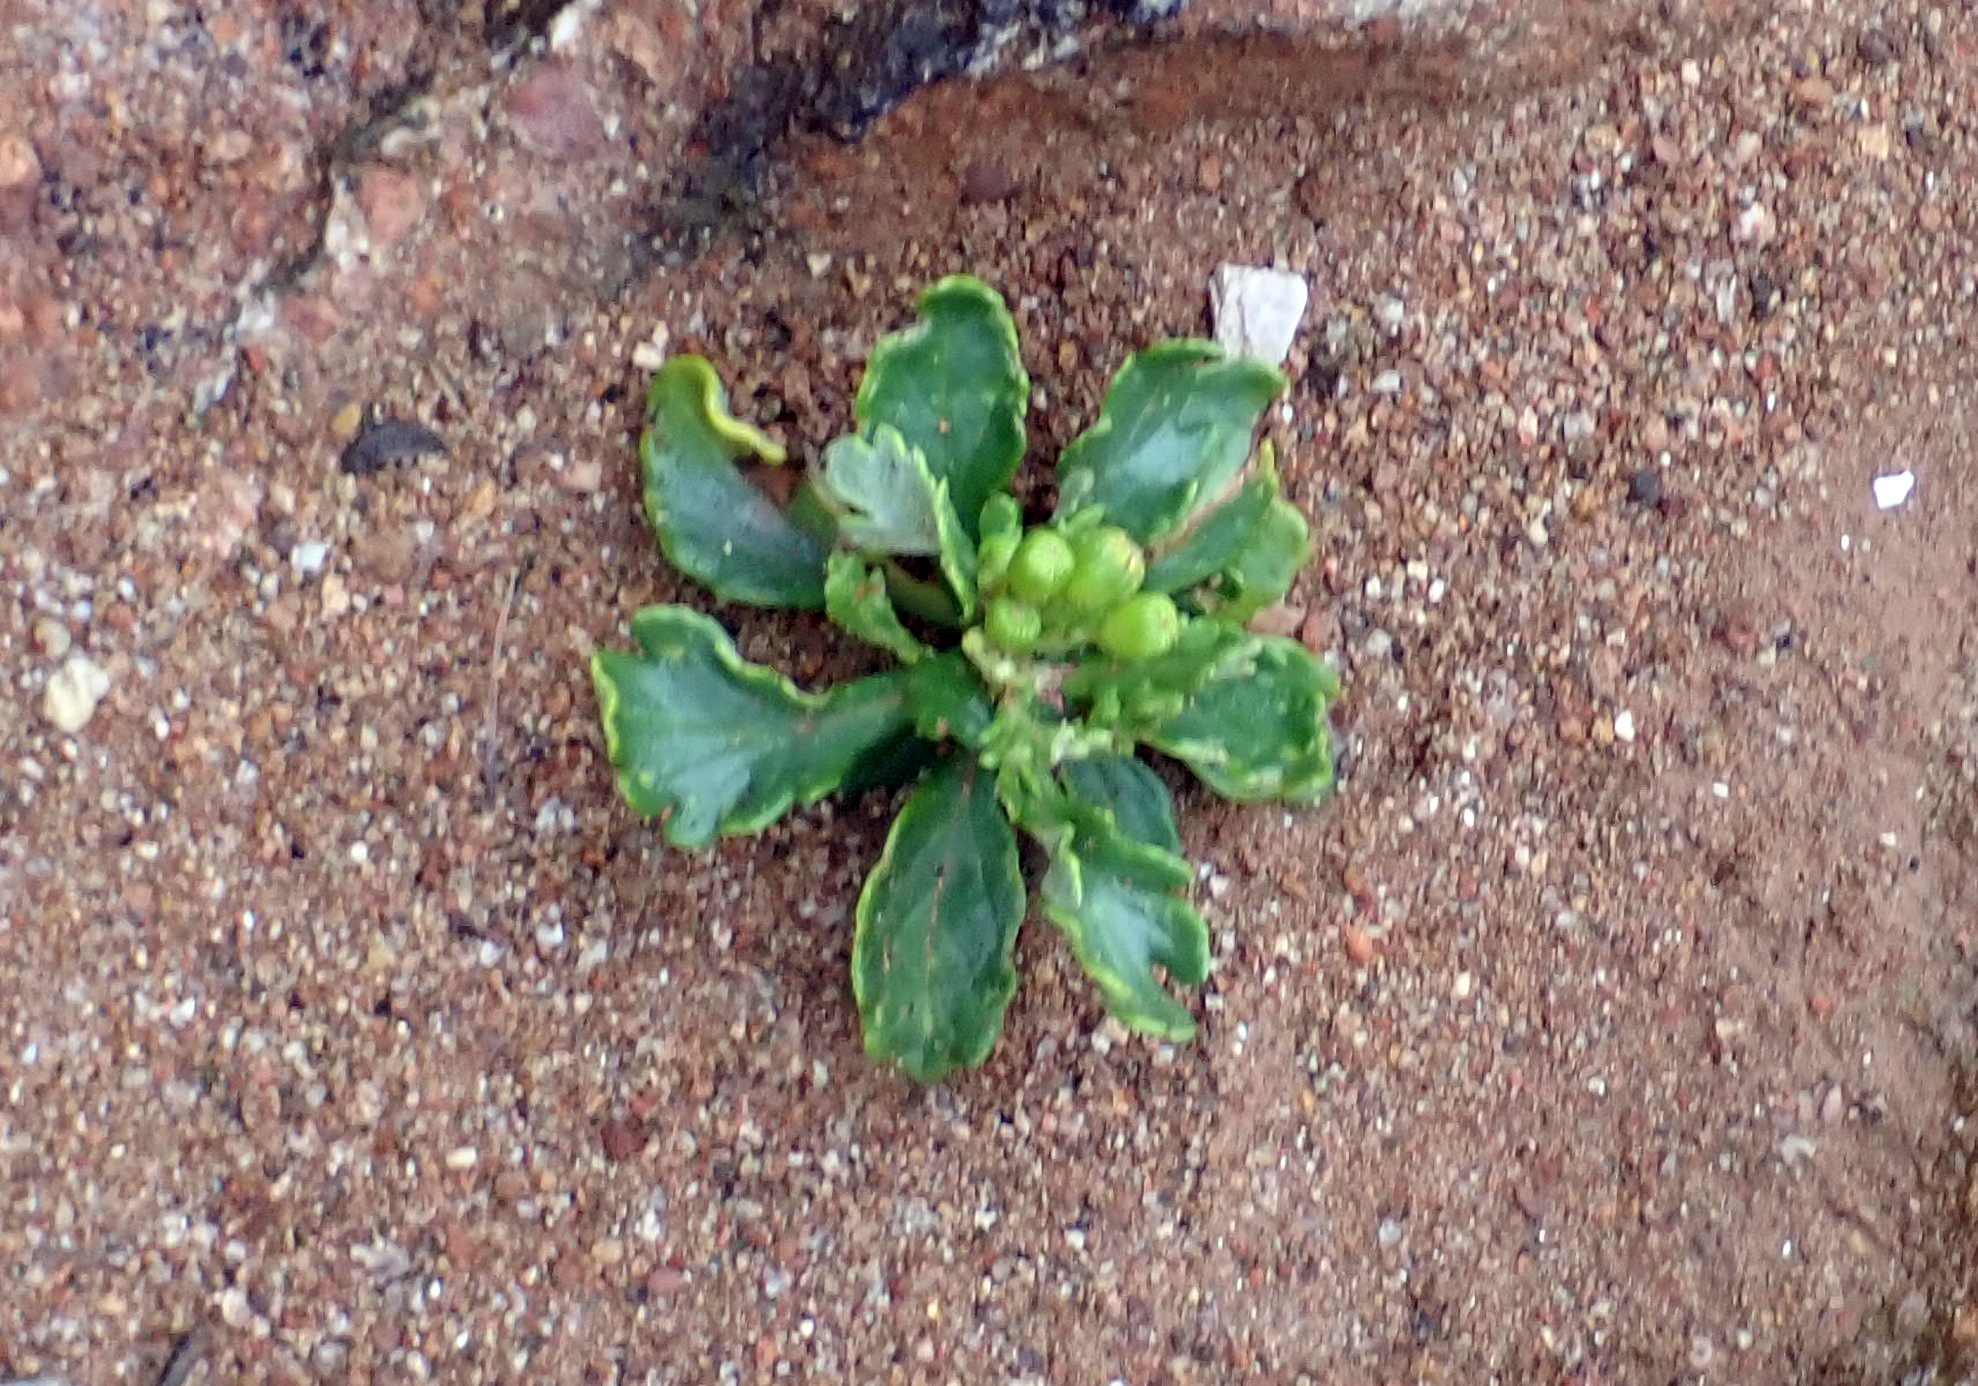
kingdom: Plantae
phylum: Tracheophyta
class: Magnoliopsida
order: Asterales
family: Asteraceae
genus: Senecio
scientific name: Senecio sterquilinus
